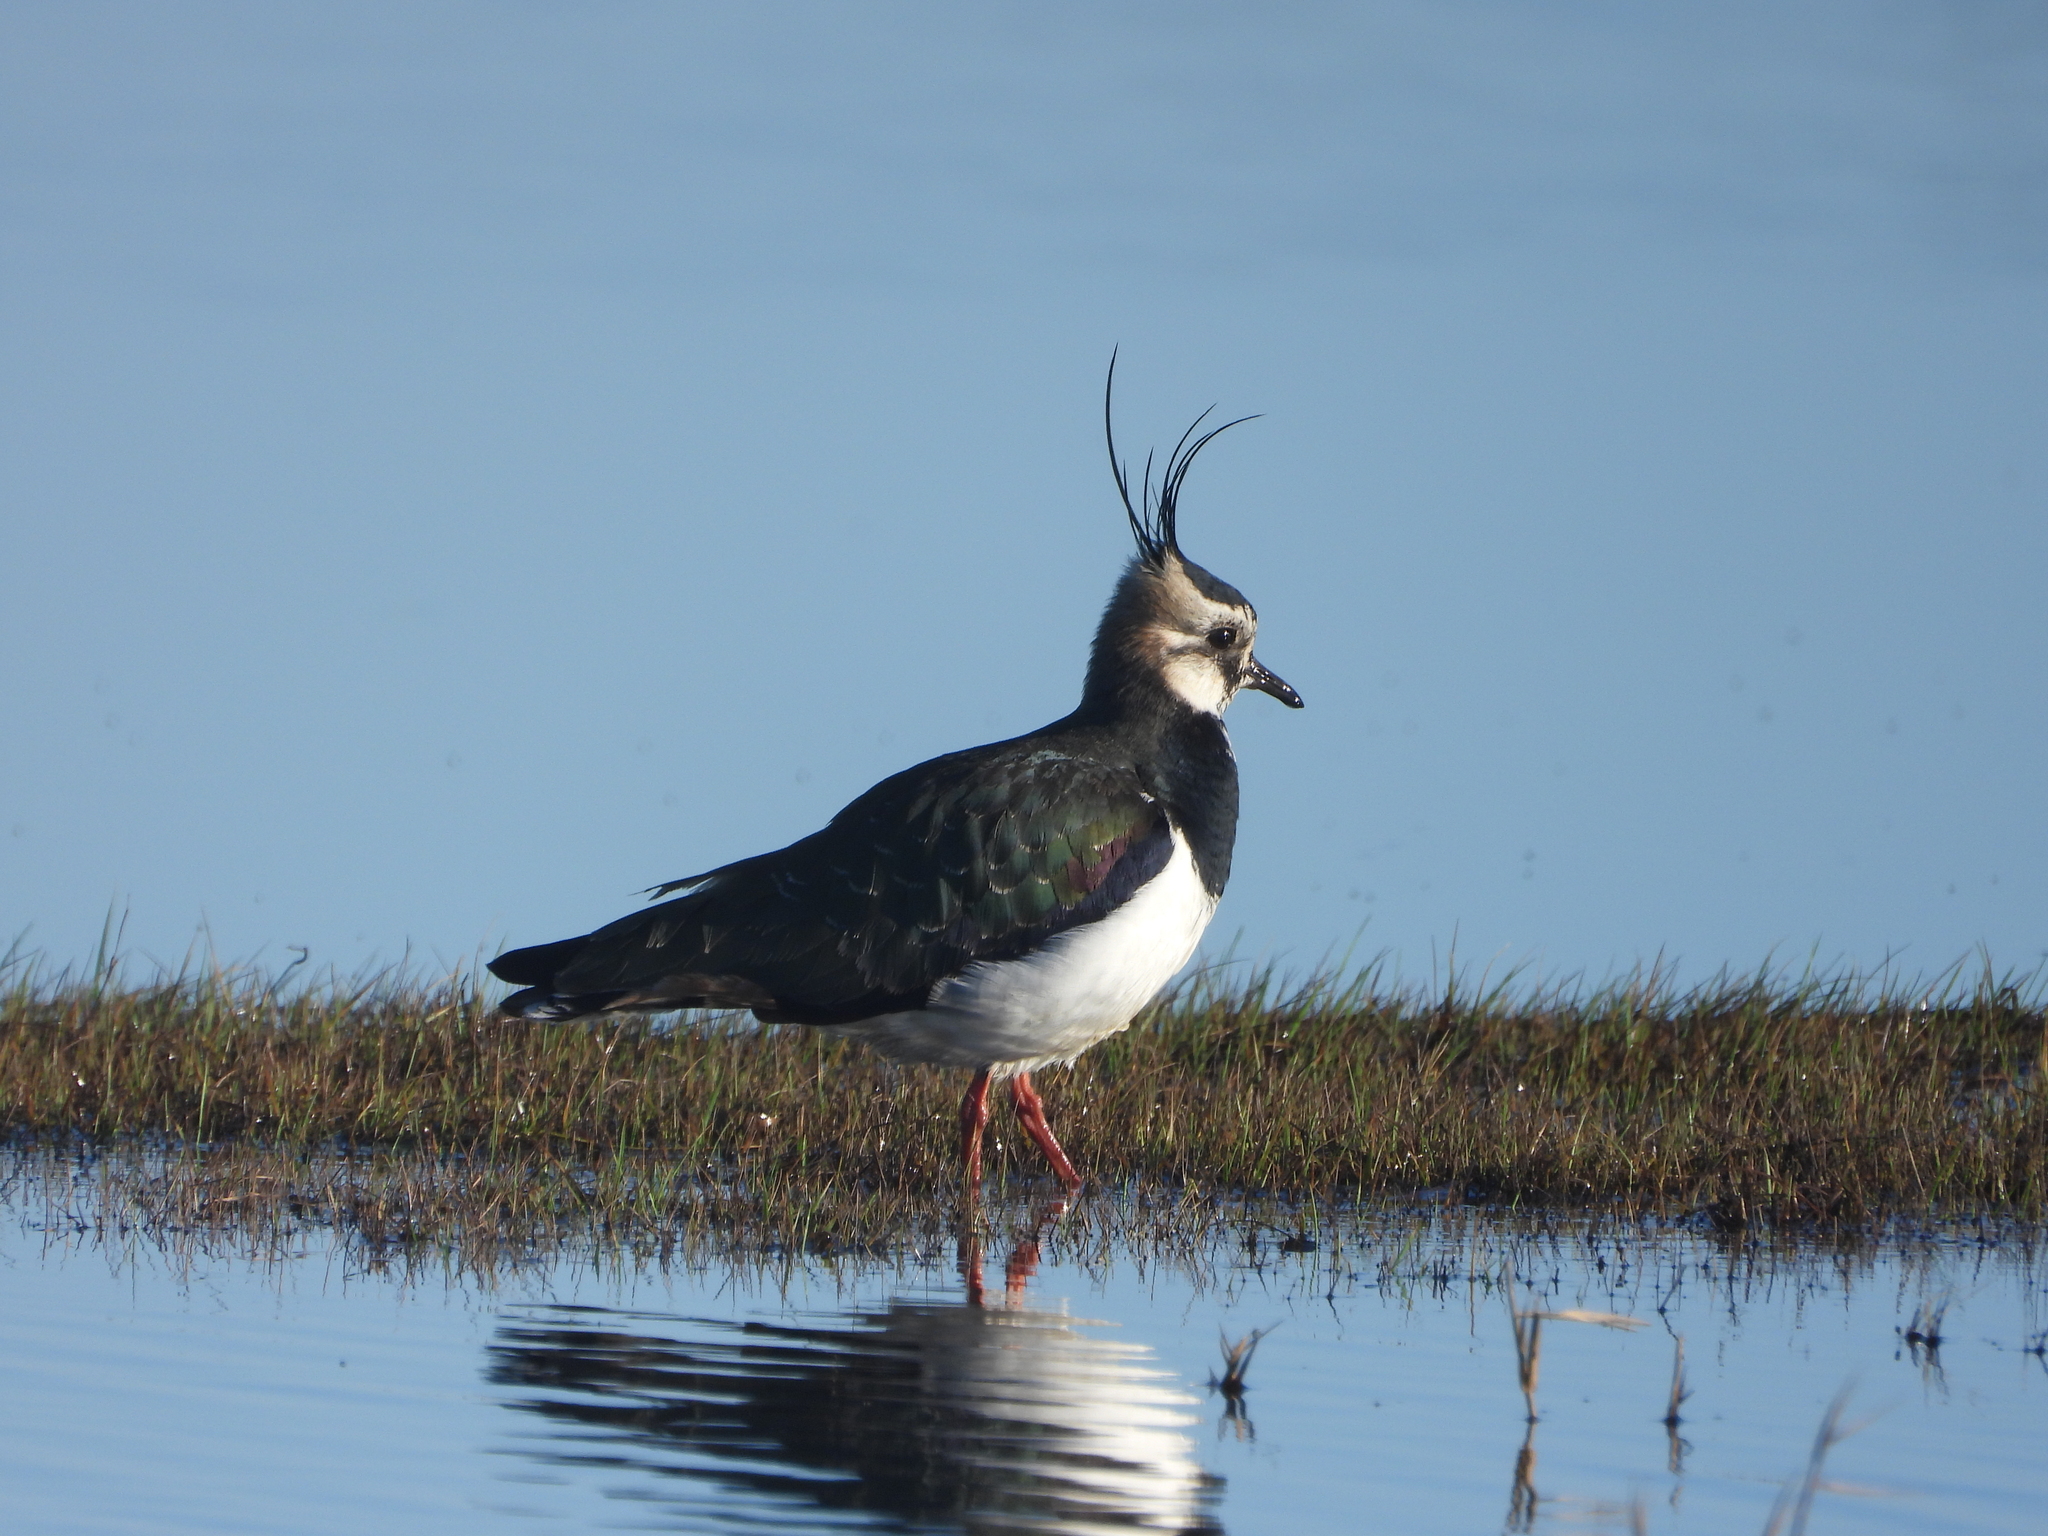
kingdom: Animalia
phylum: Chordata
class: Aves
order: Charadriiformes
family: Charadriidae
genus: Vanellus
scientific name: Vanellus vanellus
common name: Northern lapwing
